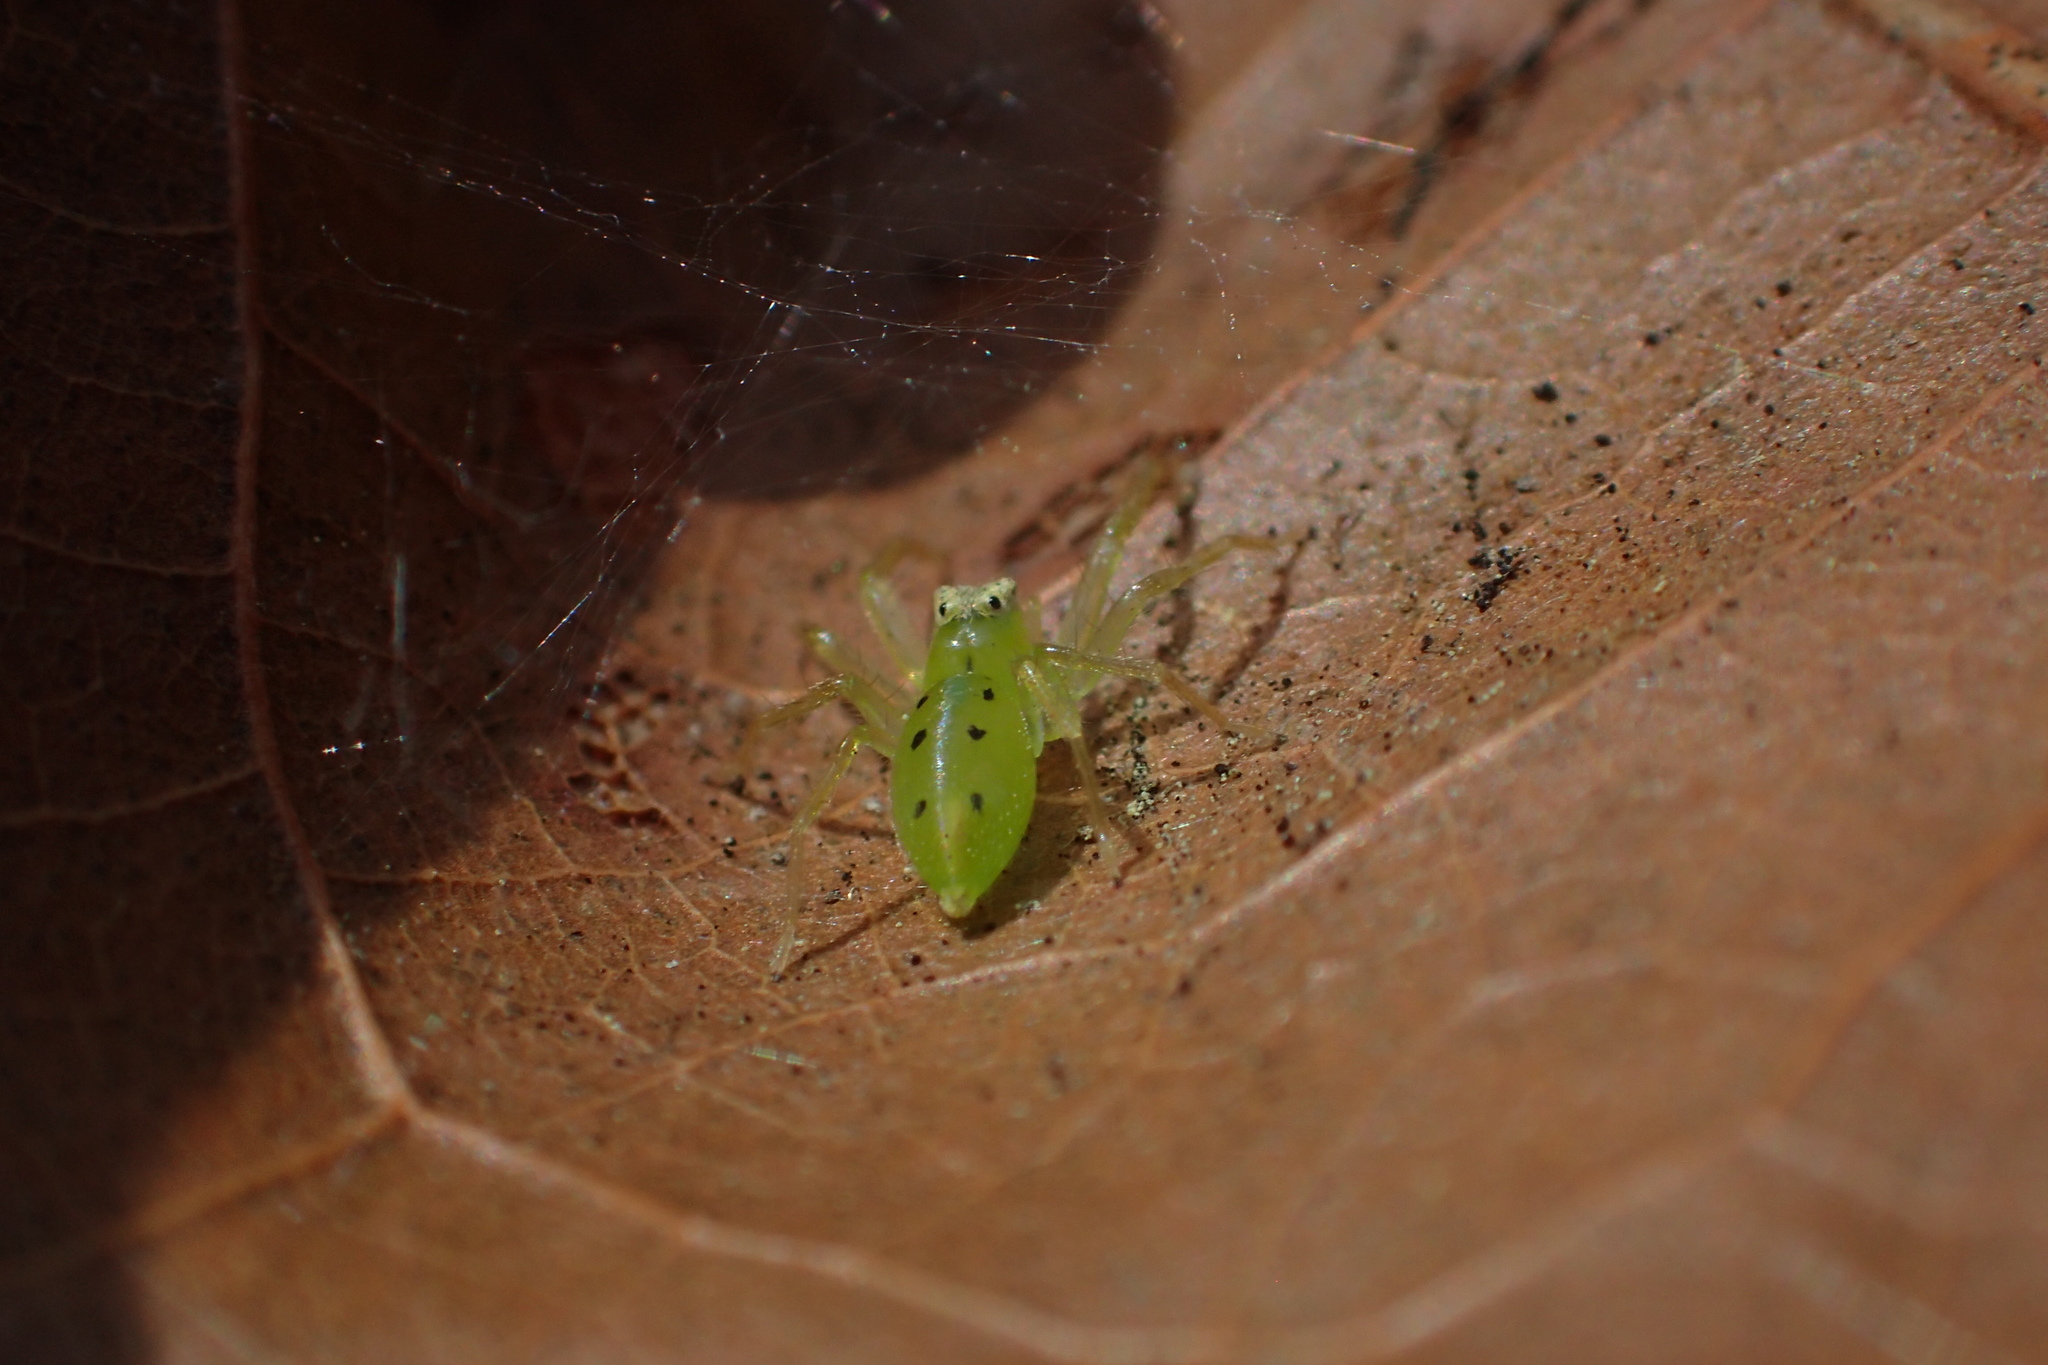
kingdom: Animalia
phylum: Arthropoda
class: Arachnida
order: Araneae
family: Salticidae
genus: Lyssomanes
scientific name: Lyssomanes viridis
